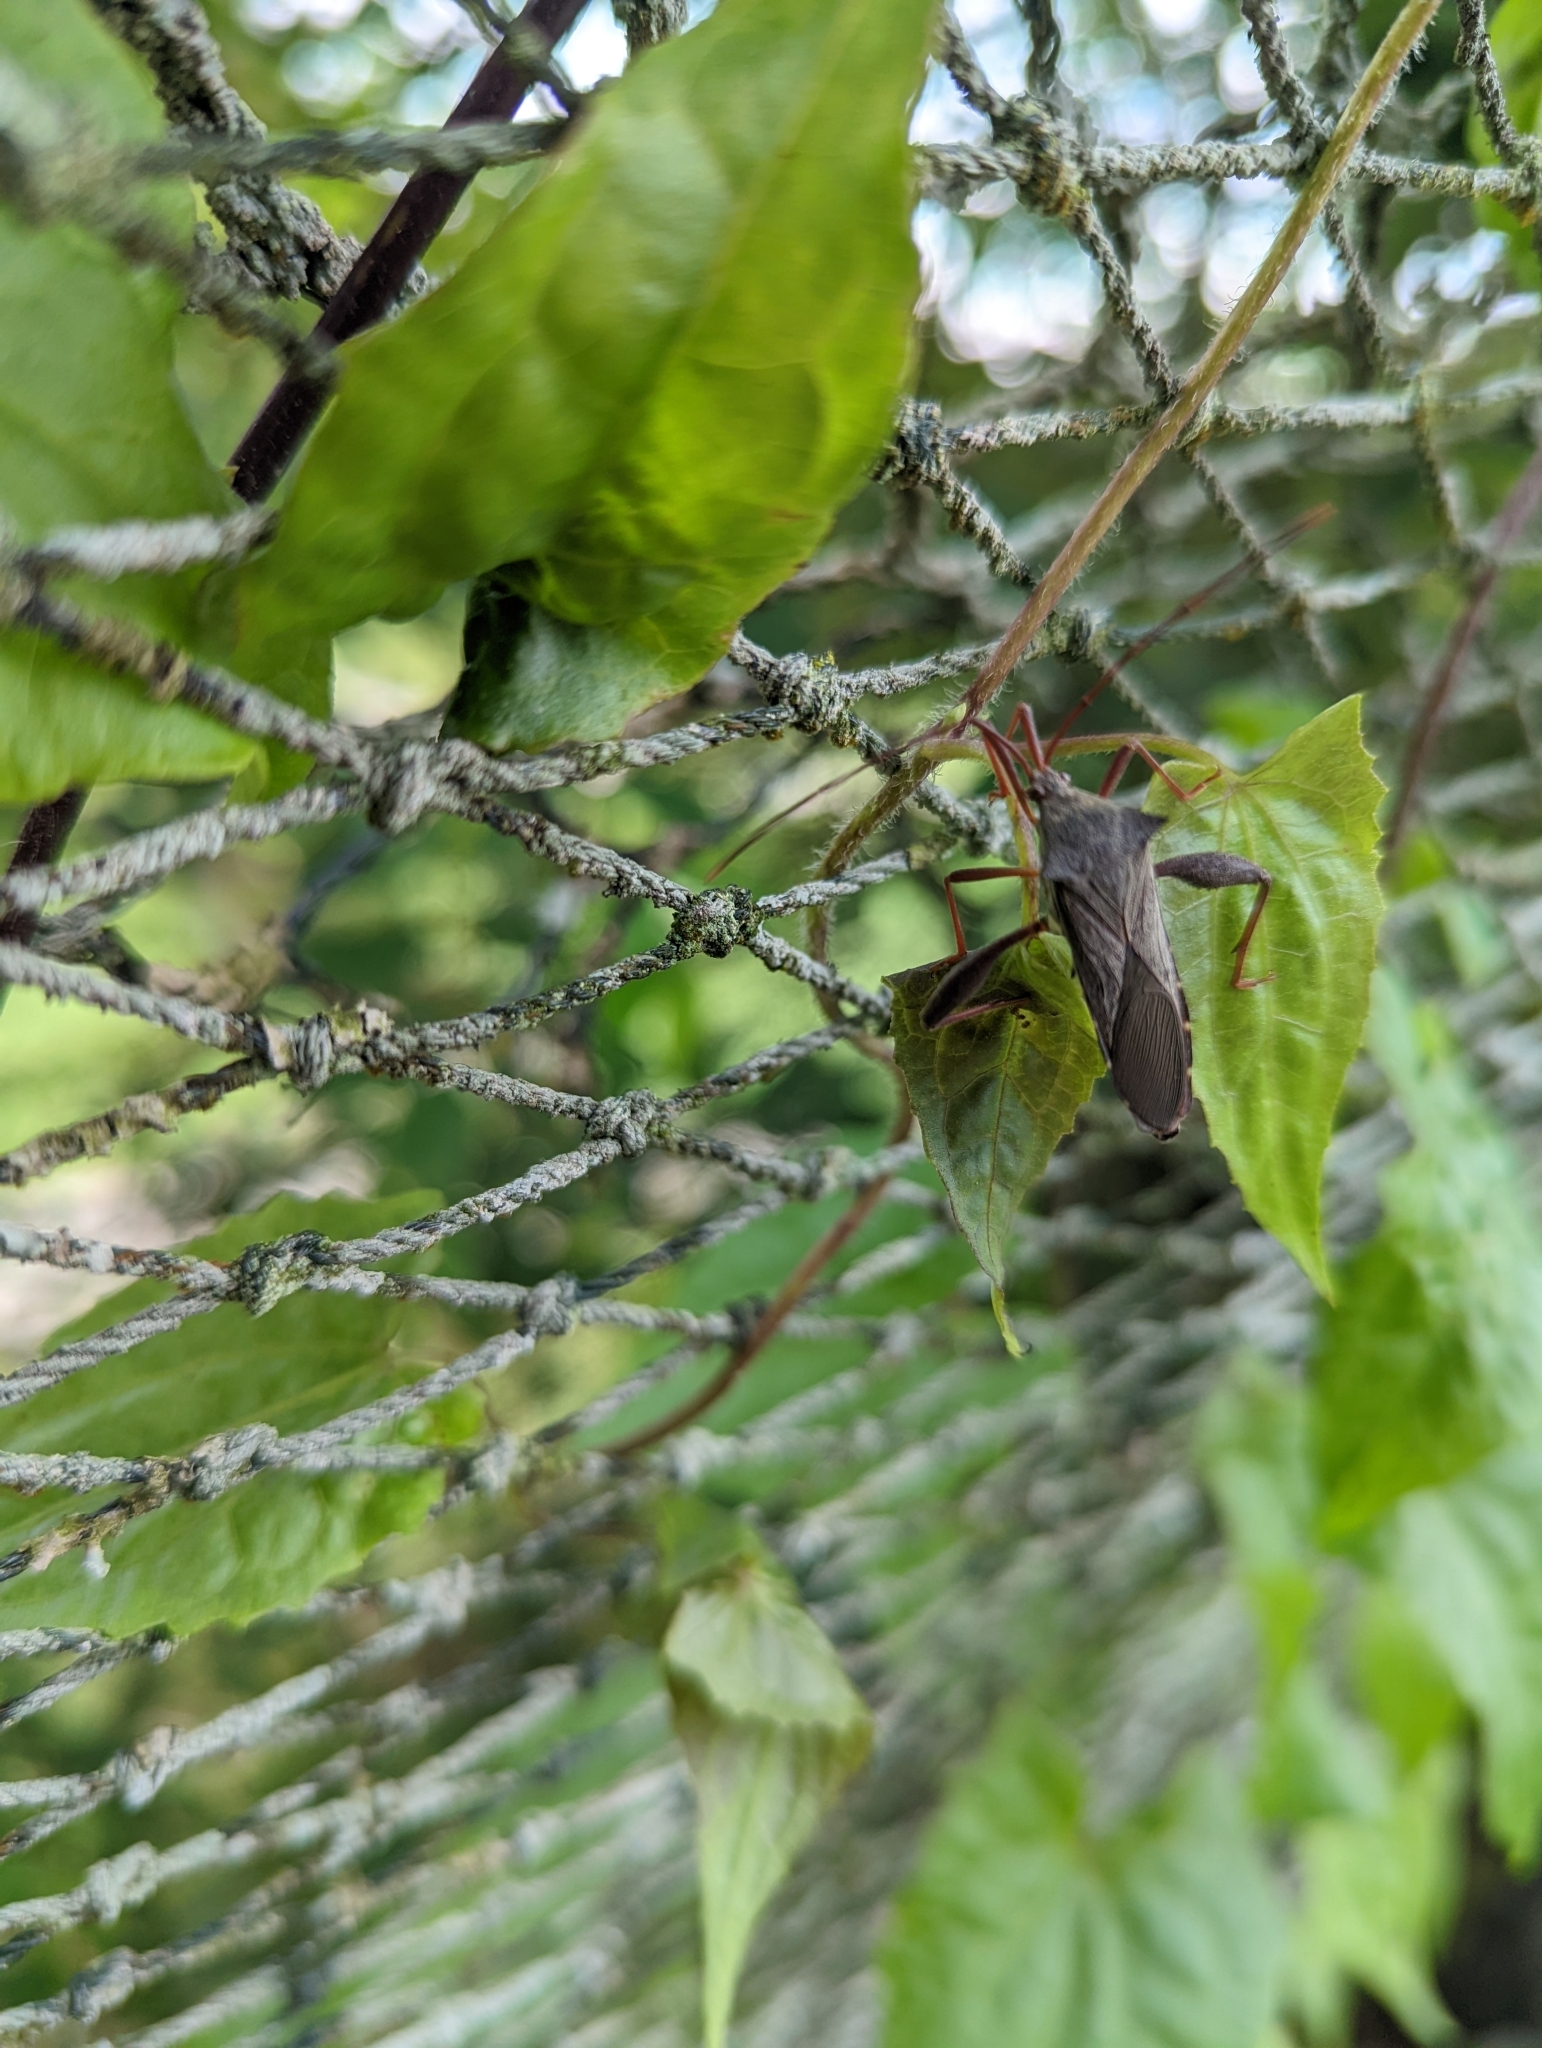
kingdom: Animalia
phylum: Arthropoda
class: Insecta
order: Hemiptera
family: Coreidae
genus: Mictis
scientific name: Mictis longicornis
